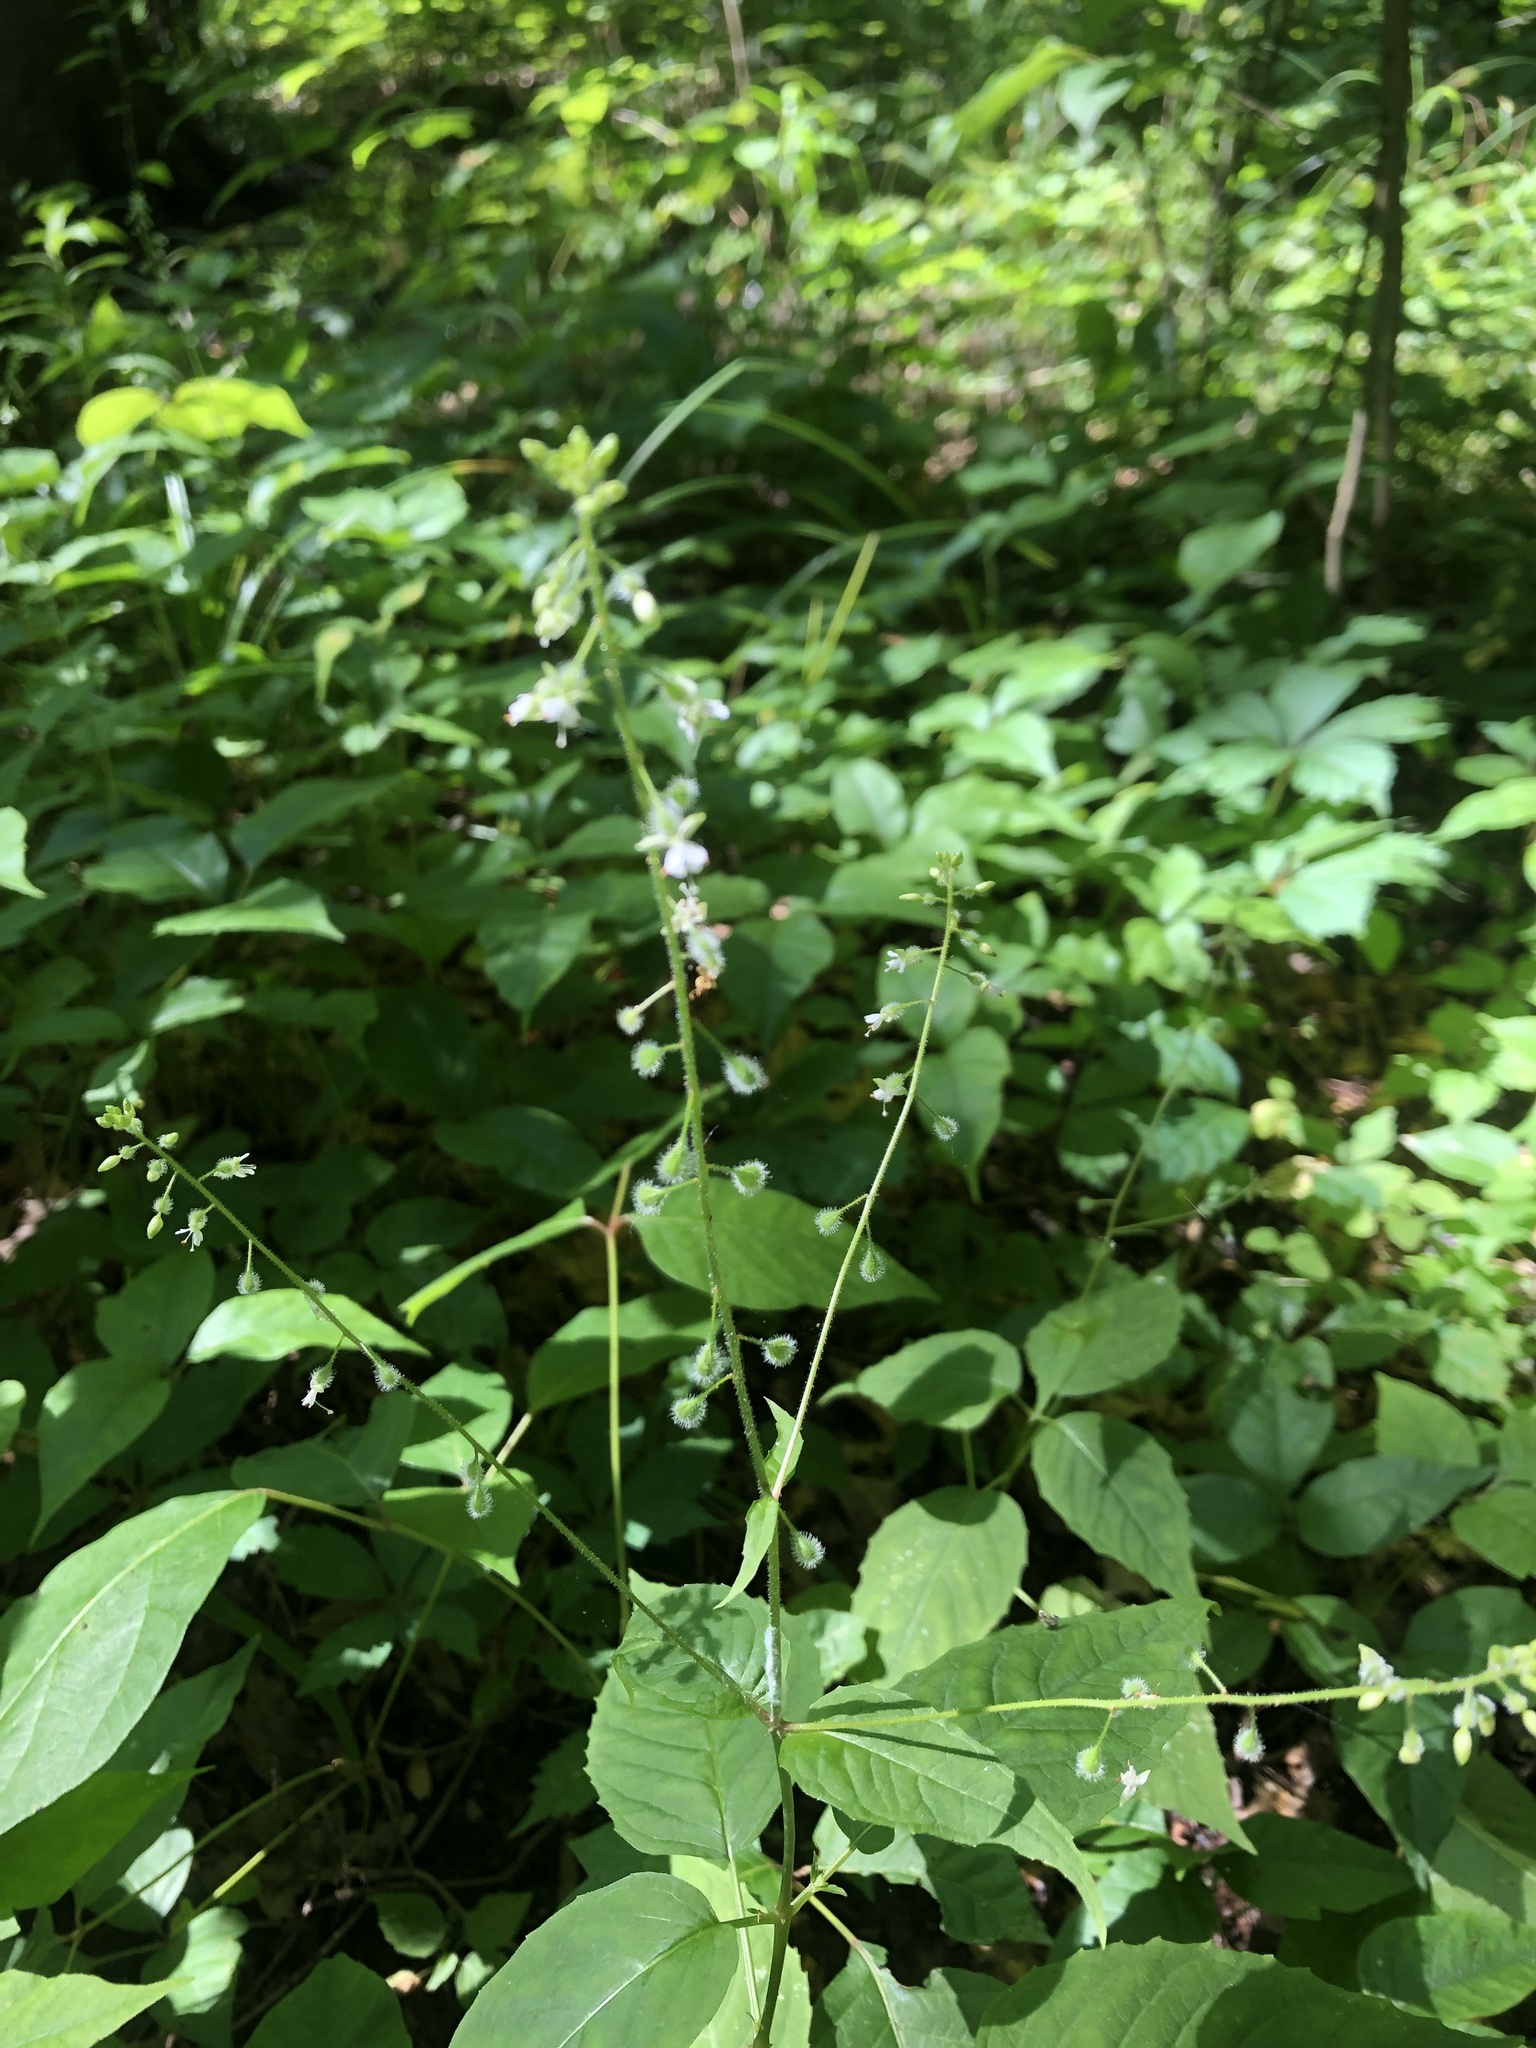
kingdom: Plantae
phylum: Tracheophyta
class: Magnoliopsida
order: Myrtales
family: Onagraceae
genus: Circaea
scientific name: Circaea canadensis
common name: Broad-leaved enchanter's nightshade
